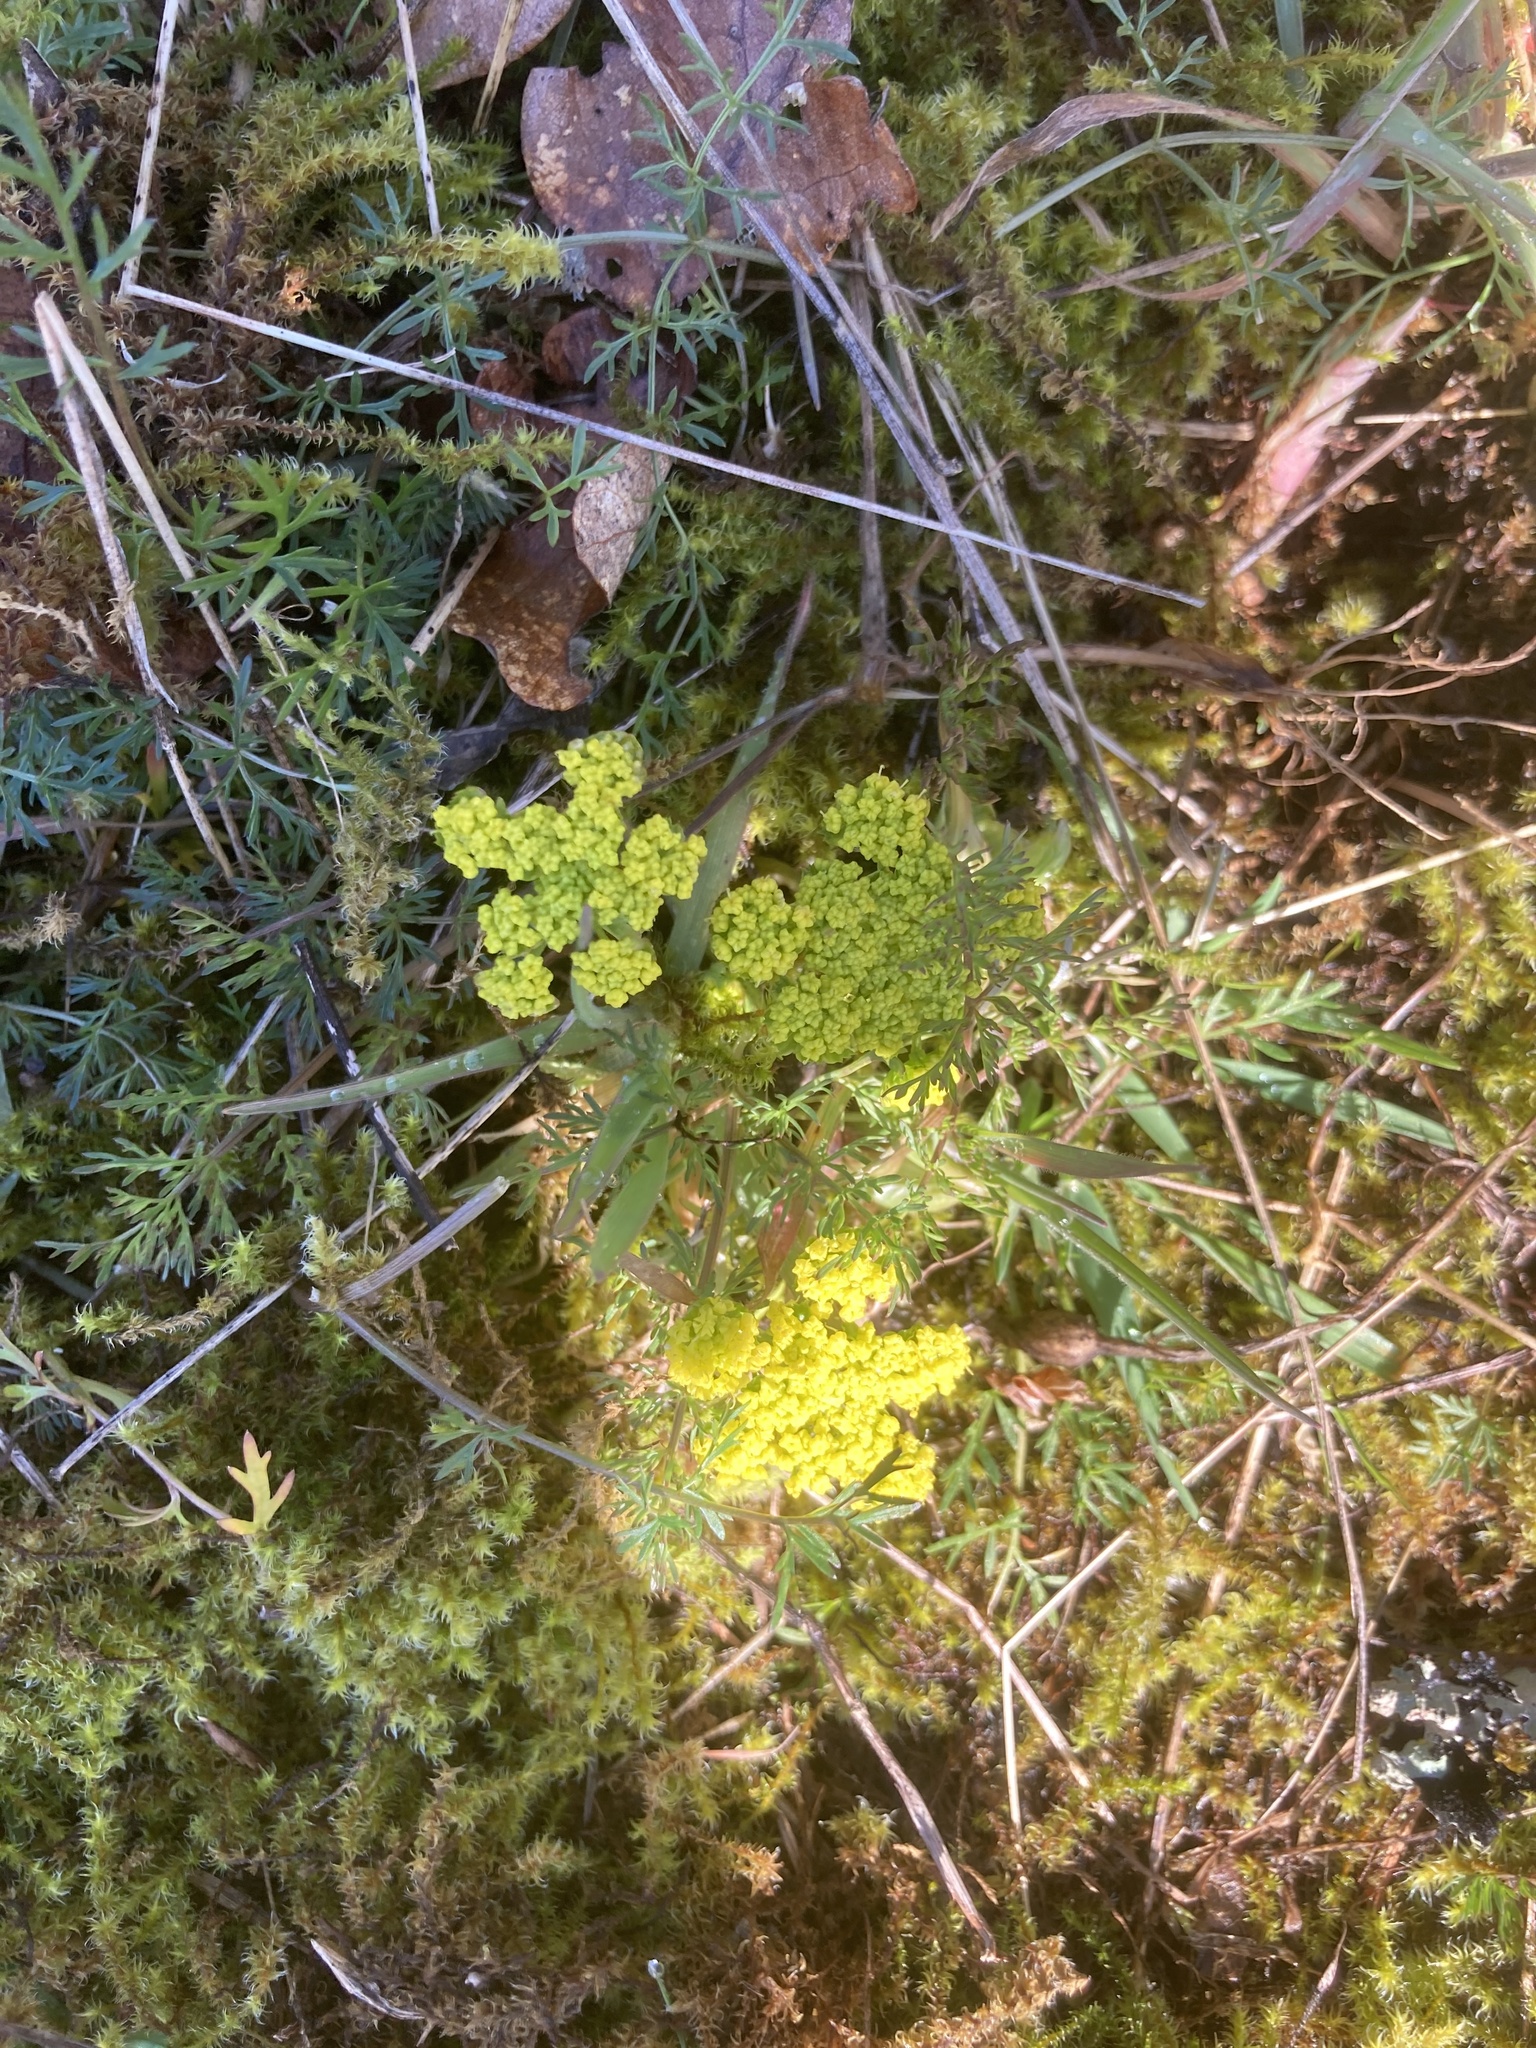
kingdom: Plantae
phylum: Tracheophyta
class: Magnoliopsida
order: Apiales
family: Apiaceae
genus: Lomatium
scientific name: Lomatium utriculatum
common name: Fine-leaf desert-parsley
